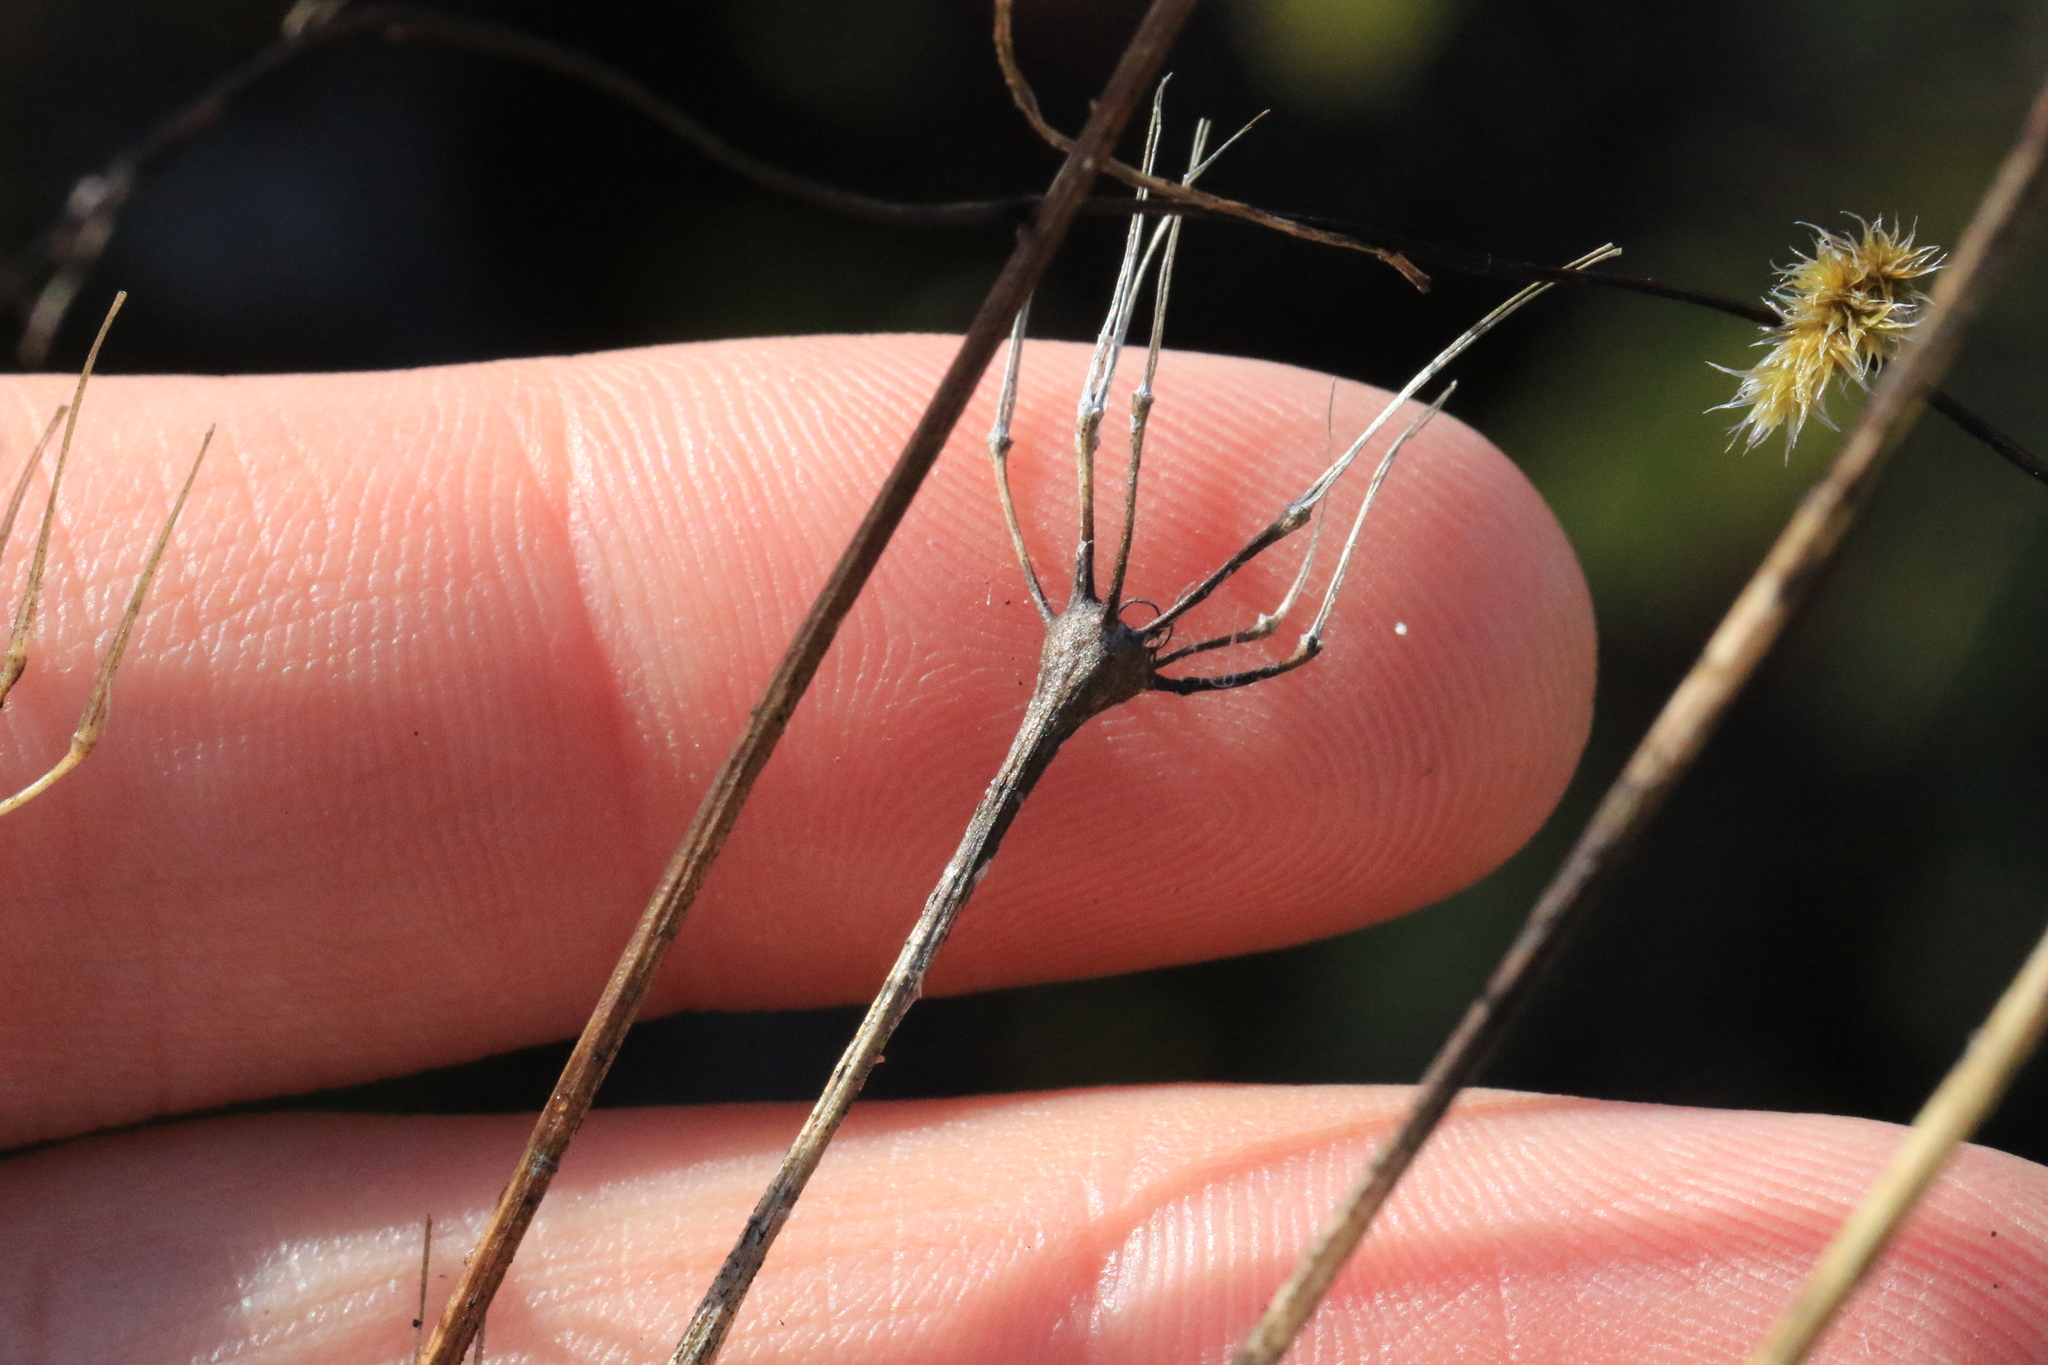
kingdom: Plantae
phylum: Tracheophyta
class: Magnoliopsida
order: Apiales
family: Apiaceae
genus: Lomatium
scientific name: Lomatium nudicaule
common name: Pestle lomatium
